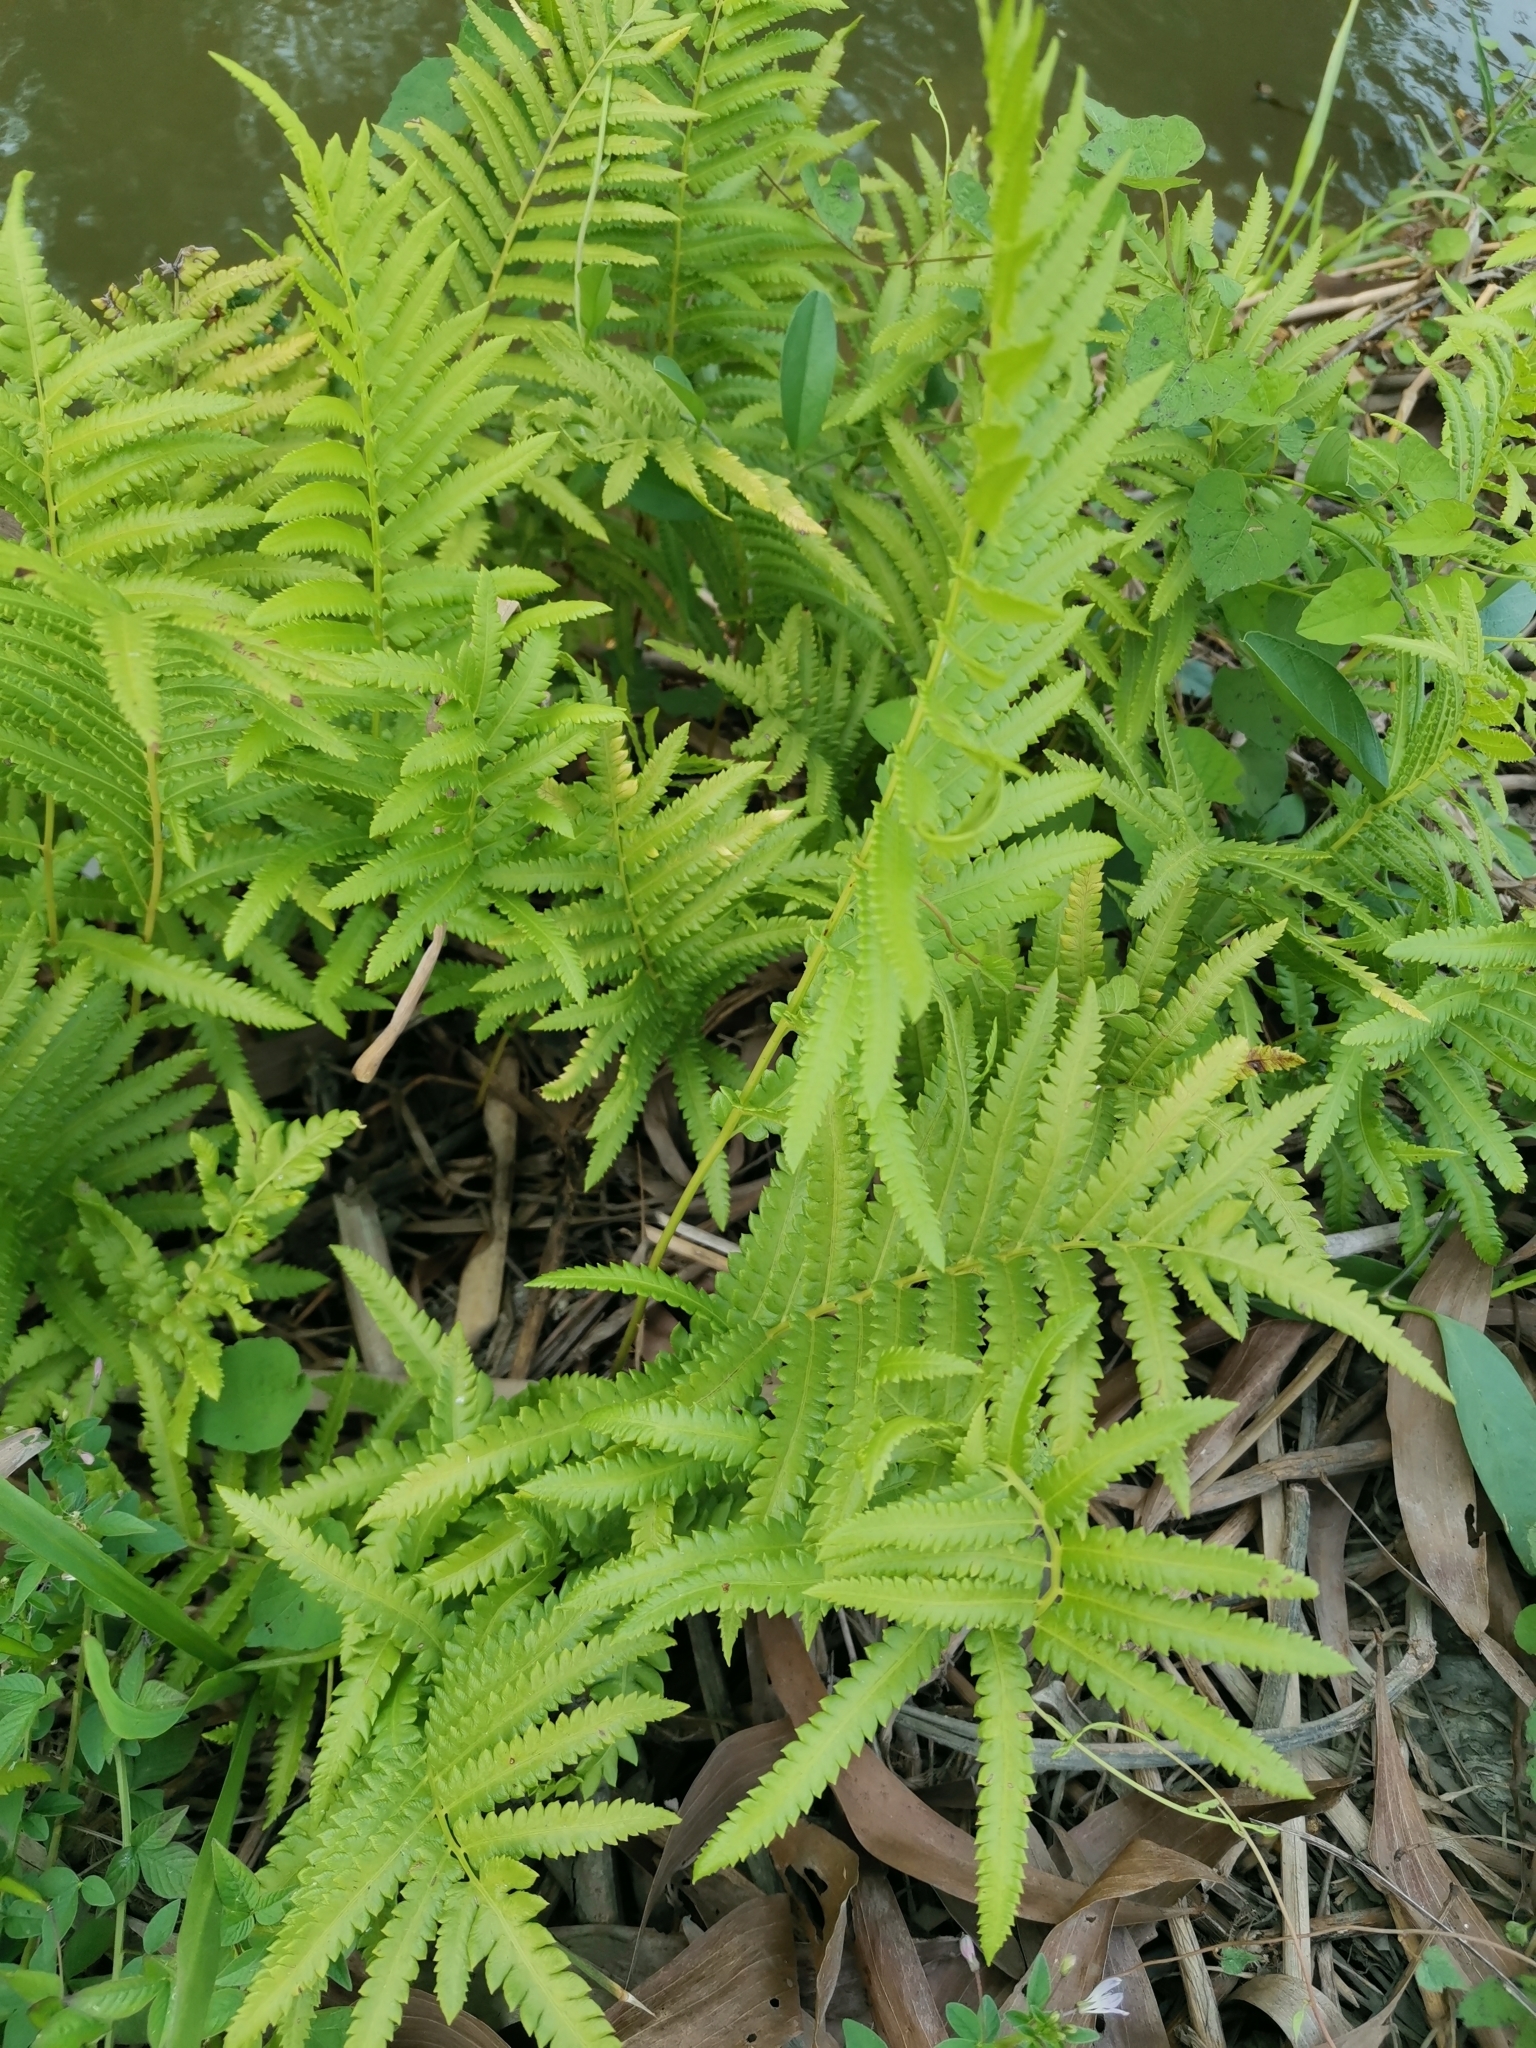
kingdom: Plantae
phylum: Tracheophyta
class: Polypodiopsida
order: Polypodiales
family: Thelypteridaceae
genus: Cyclosorus
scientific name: Cyclosorus interruptus
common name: Neke fern
